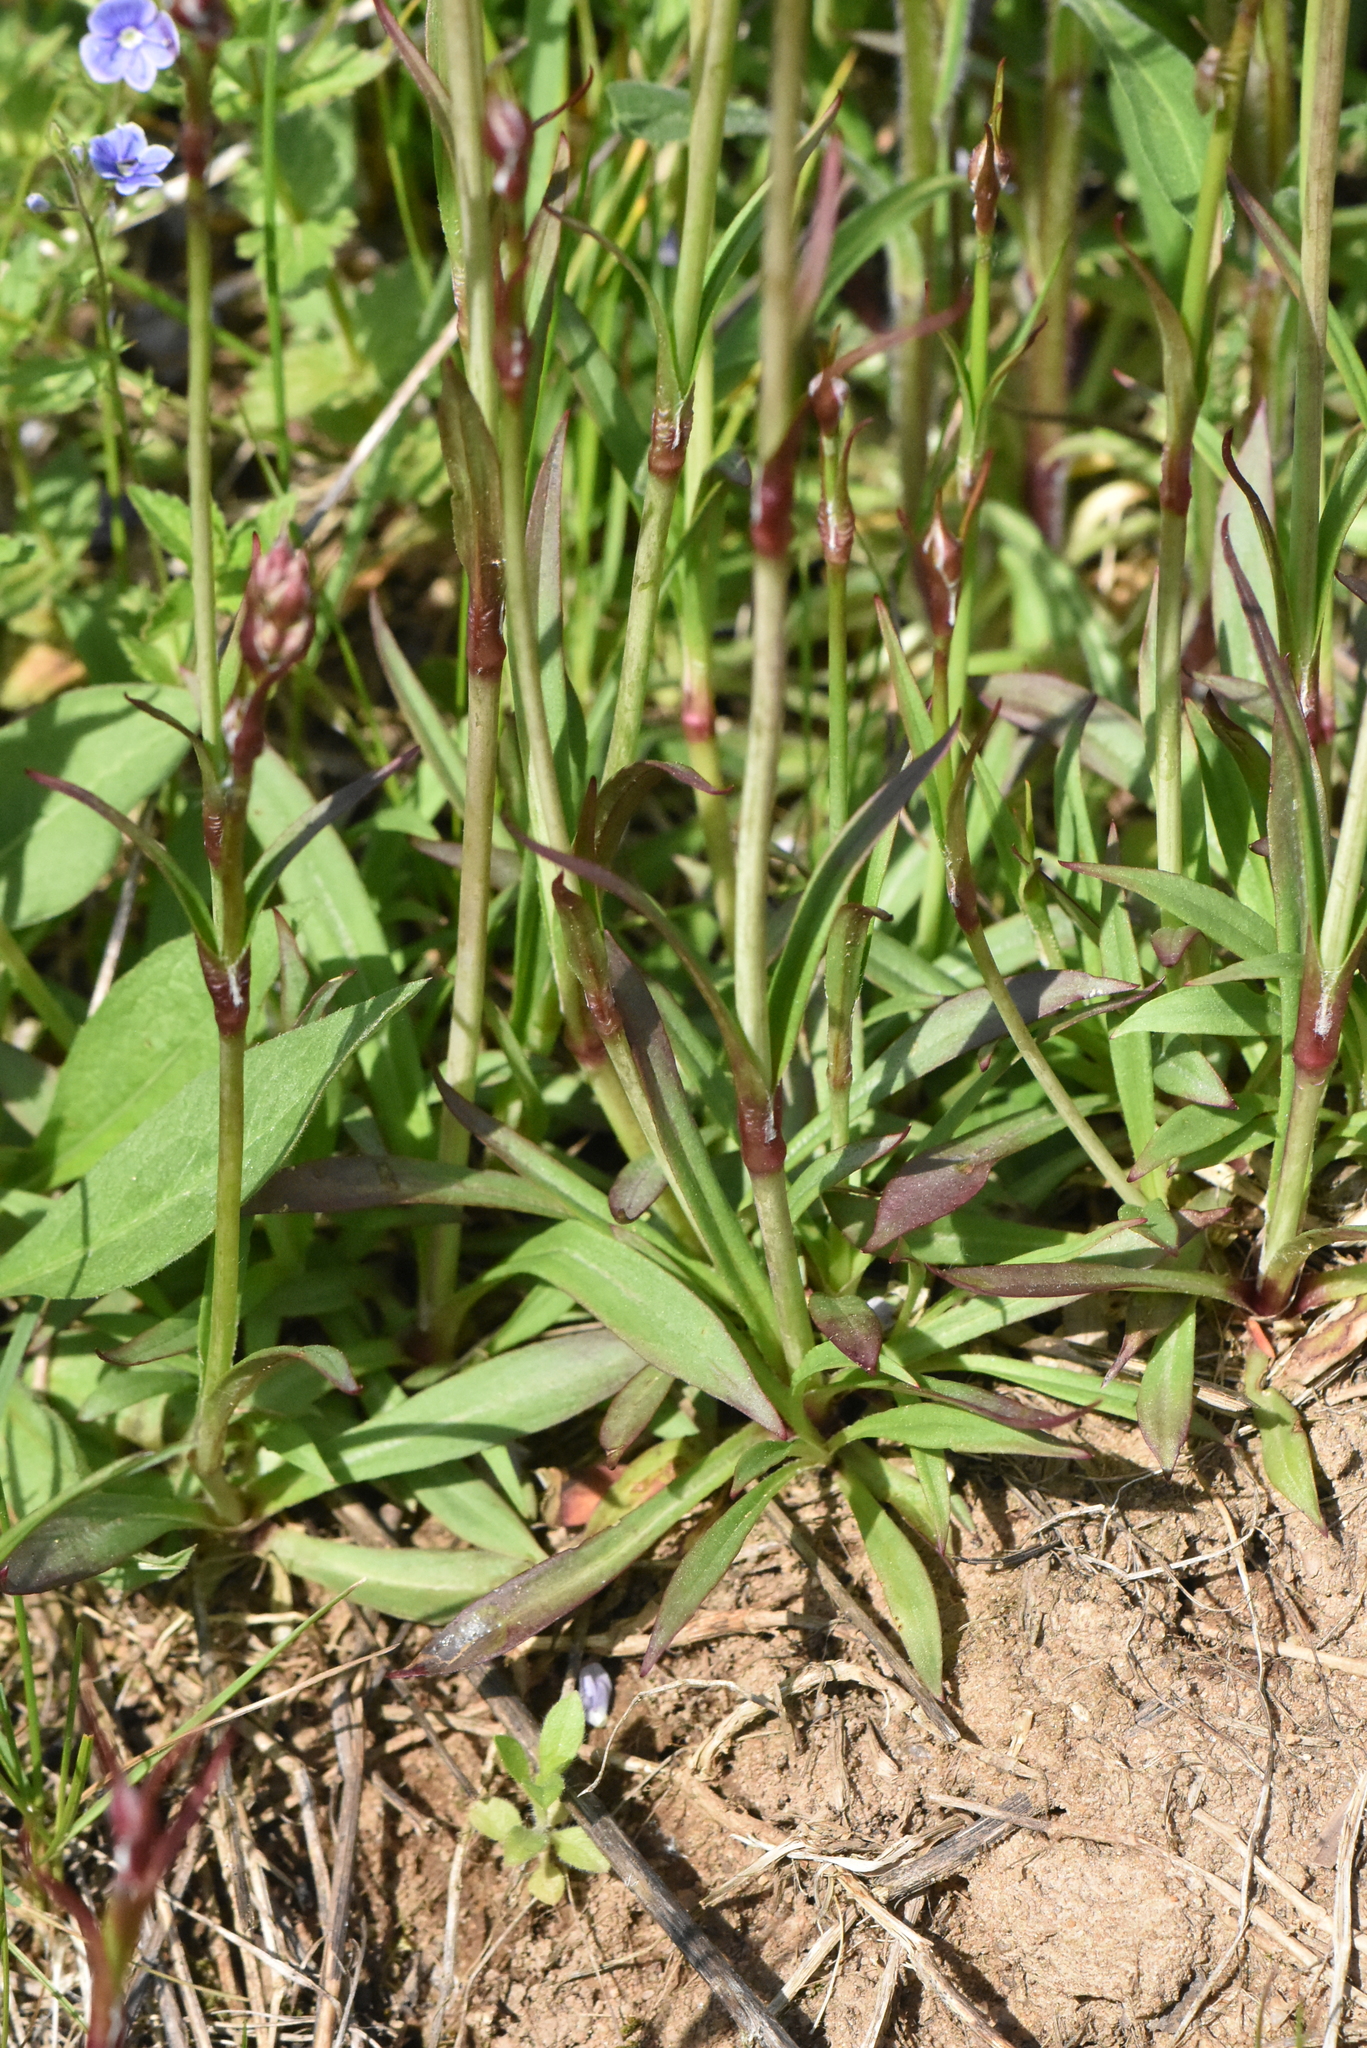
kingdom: Plantae
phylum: Tracheophyta
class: Magnoliopsida
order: Caryophyllales
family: Caryophyllaceae
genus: Viscaria
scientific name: Viscaria vulgaris
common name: Clammy campion
